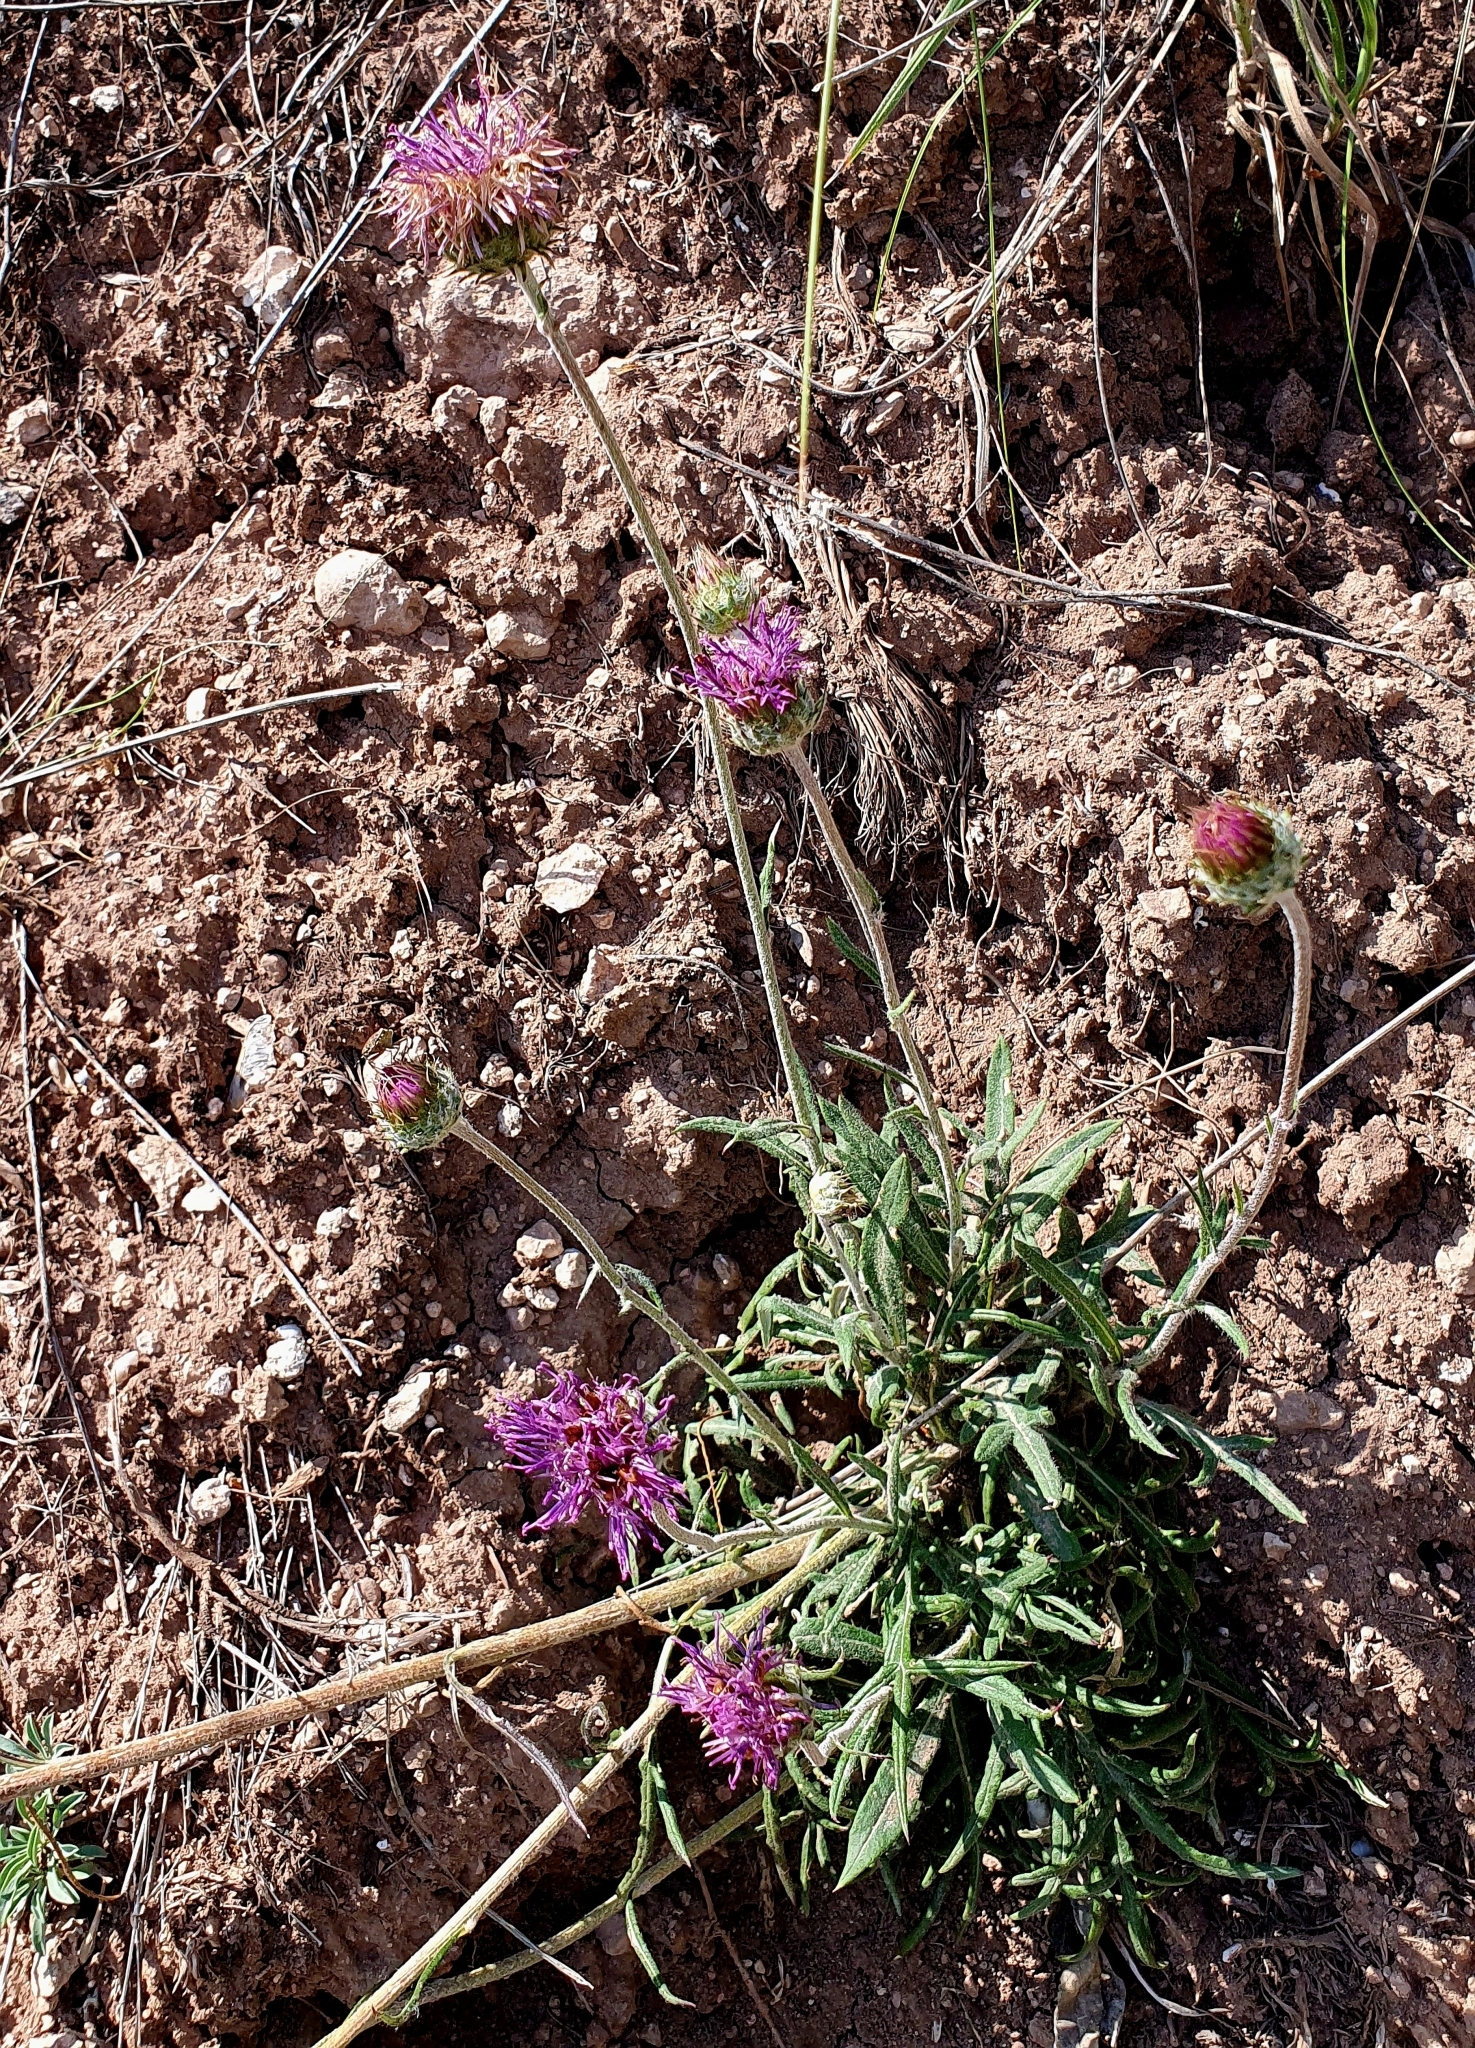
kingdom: Plantae
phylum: Tracheophyta
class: Magnoliopsida
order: Asterales
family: Asteraceae
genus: Jurinea
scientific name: Jurinea ledebourii
